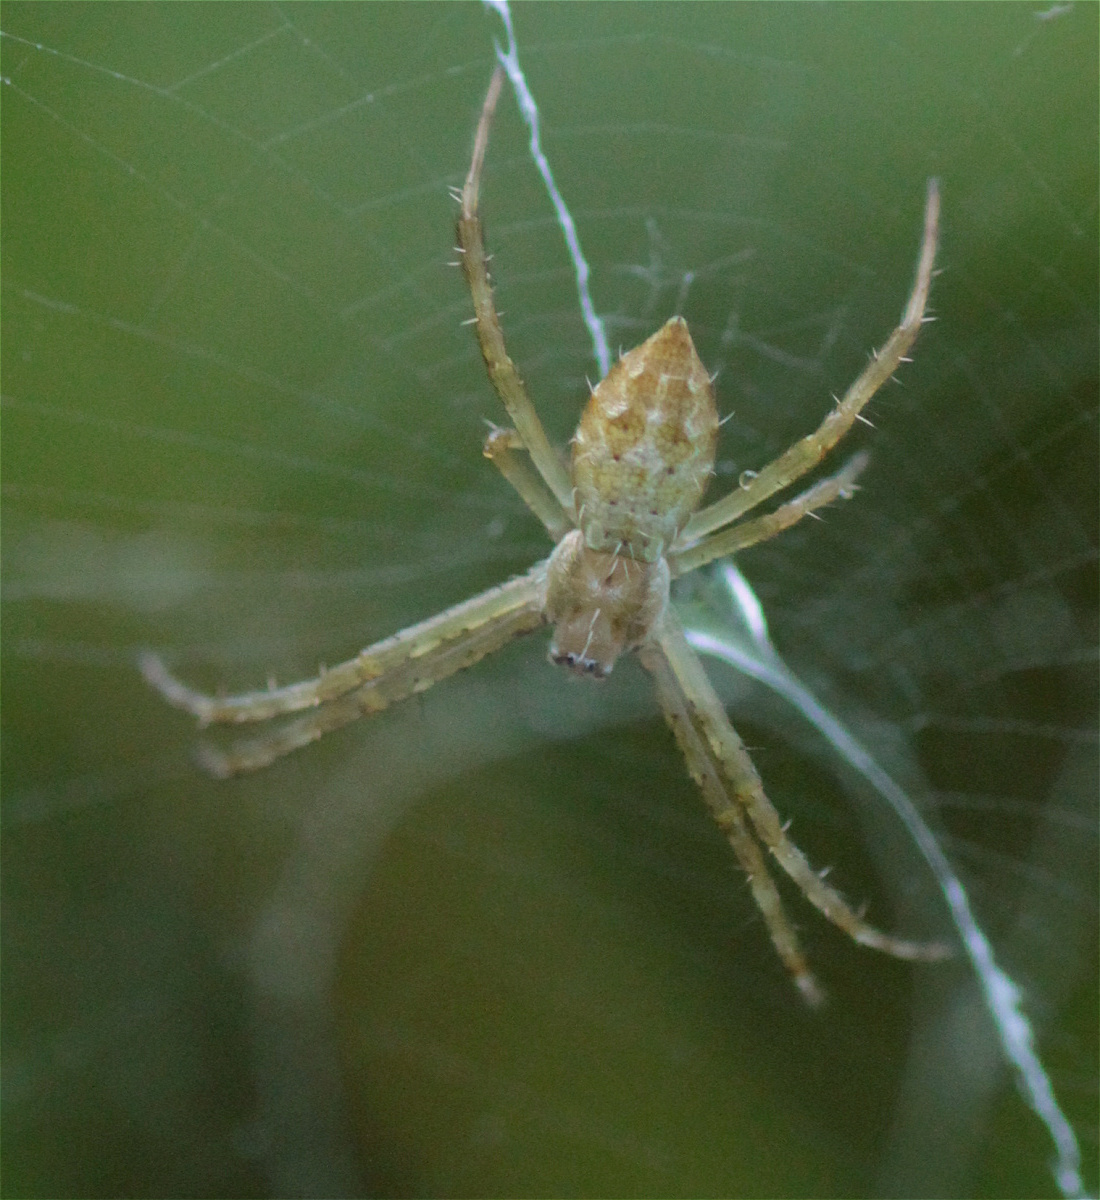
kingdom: Animalia
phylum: Arthropoda
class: Arachnida
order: Araneae
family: Araneidae
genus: Argiope
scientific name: Argiope argentata
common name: Orb weavers
